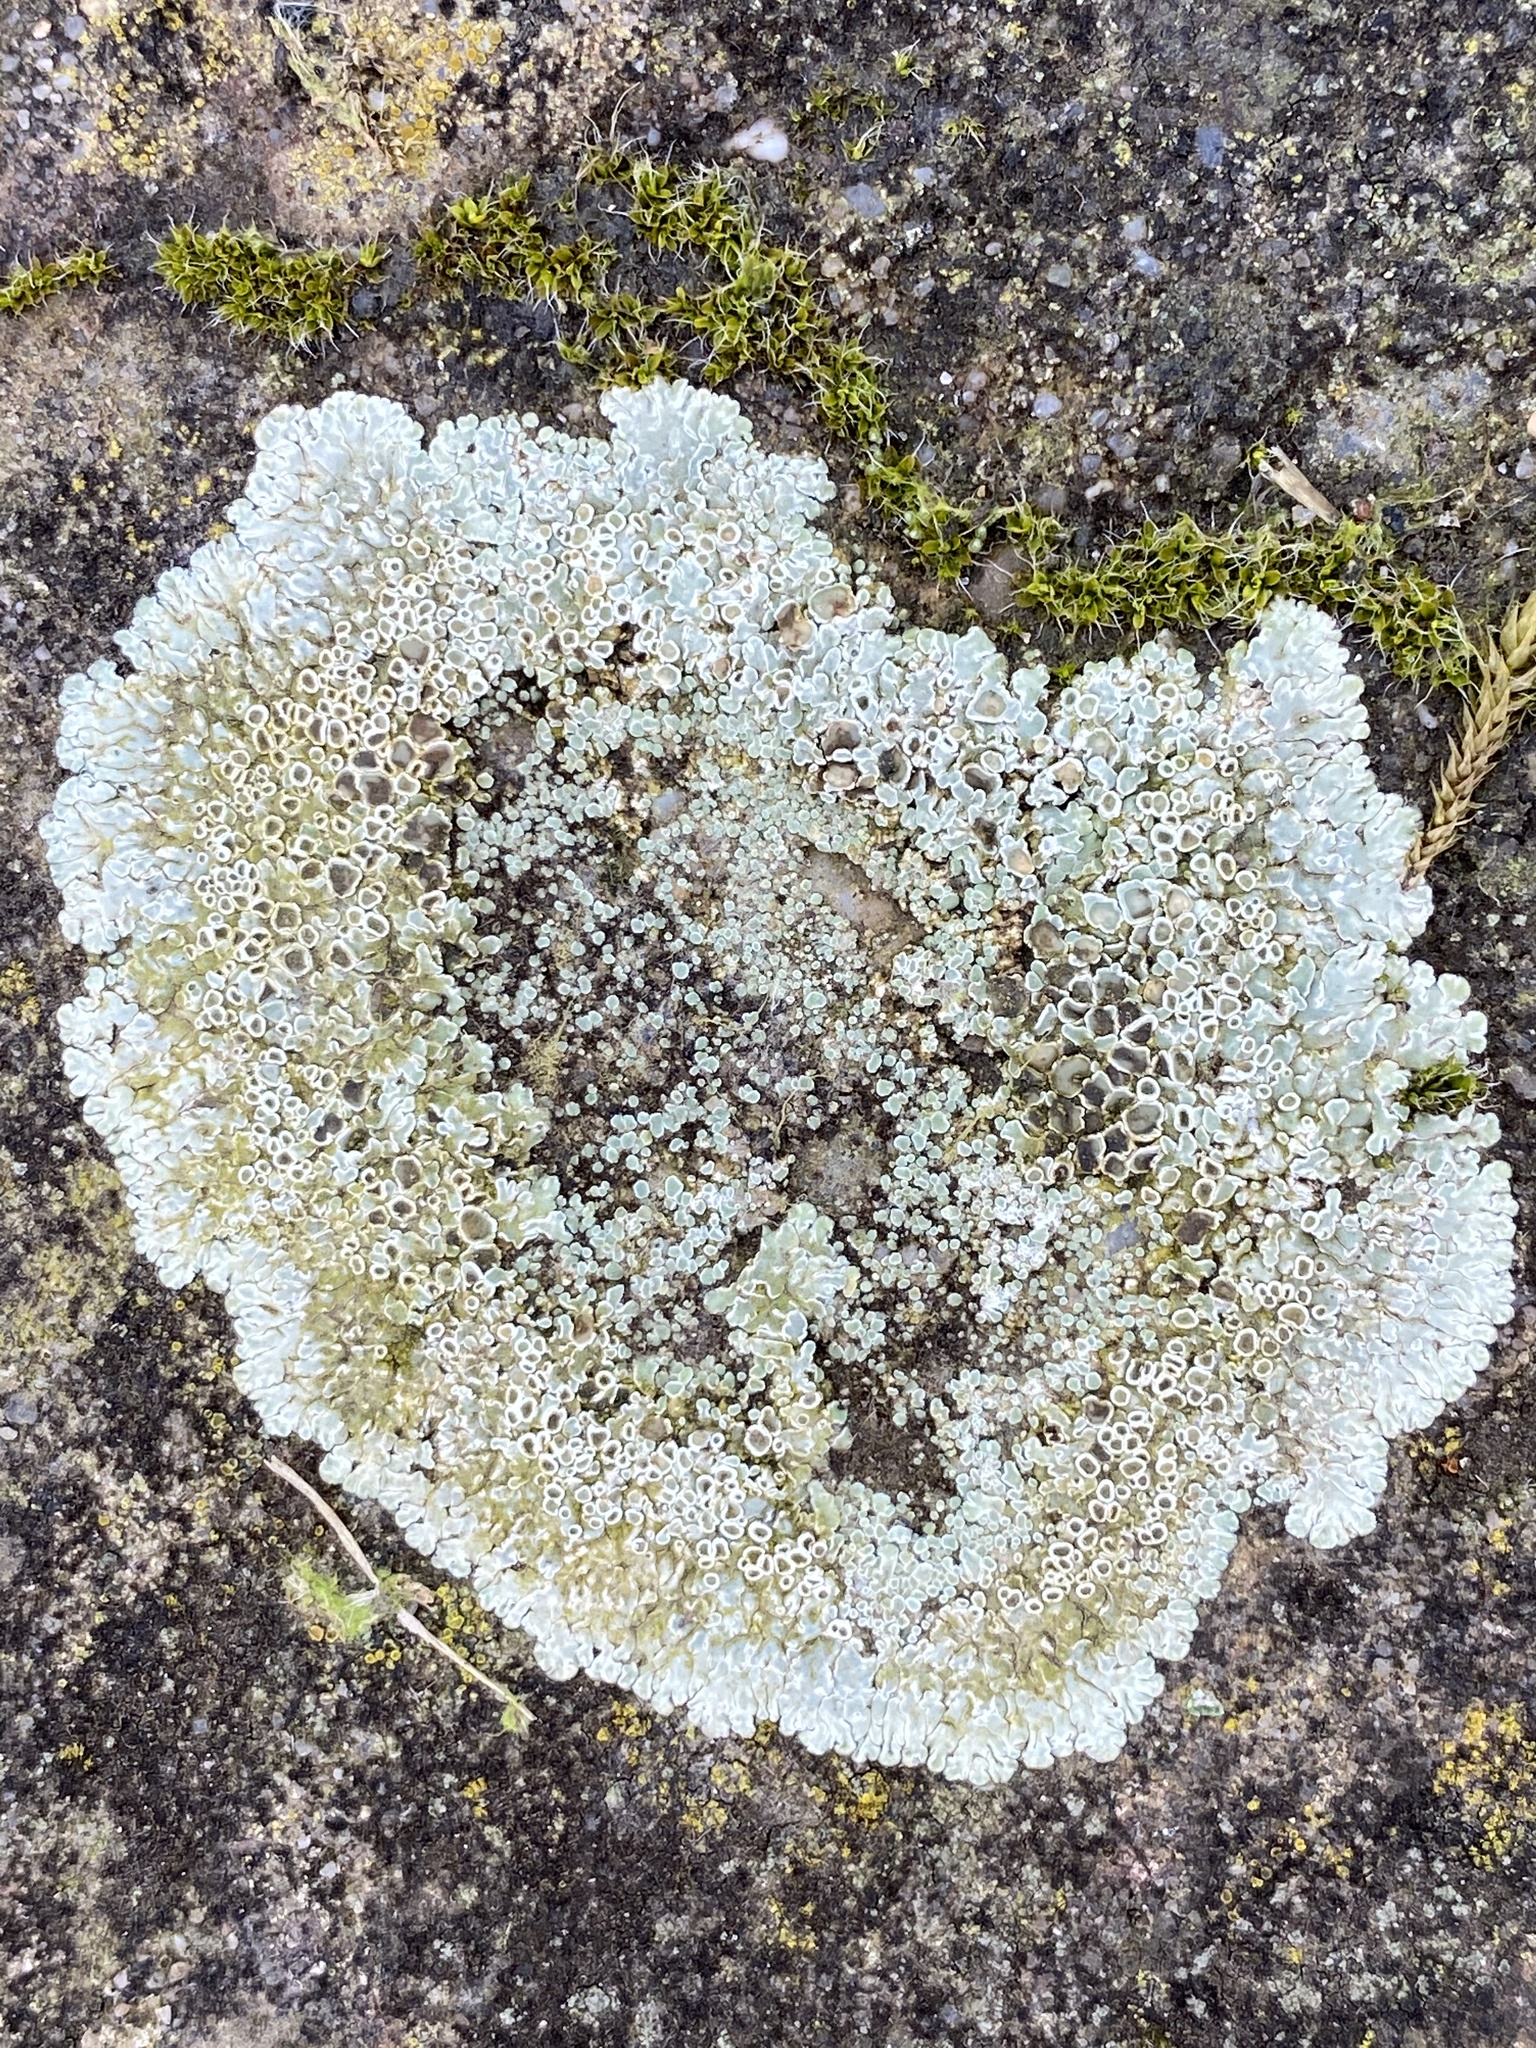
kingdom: Fungi
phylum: Ascomycota
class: Lecanoromycetes
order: Lecanorales
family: Lecanoraceae
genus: Protoparmeliopsis
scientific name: Protoparmeliopsis muralis
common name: Stonewall rim lichen
